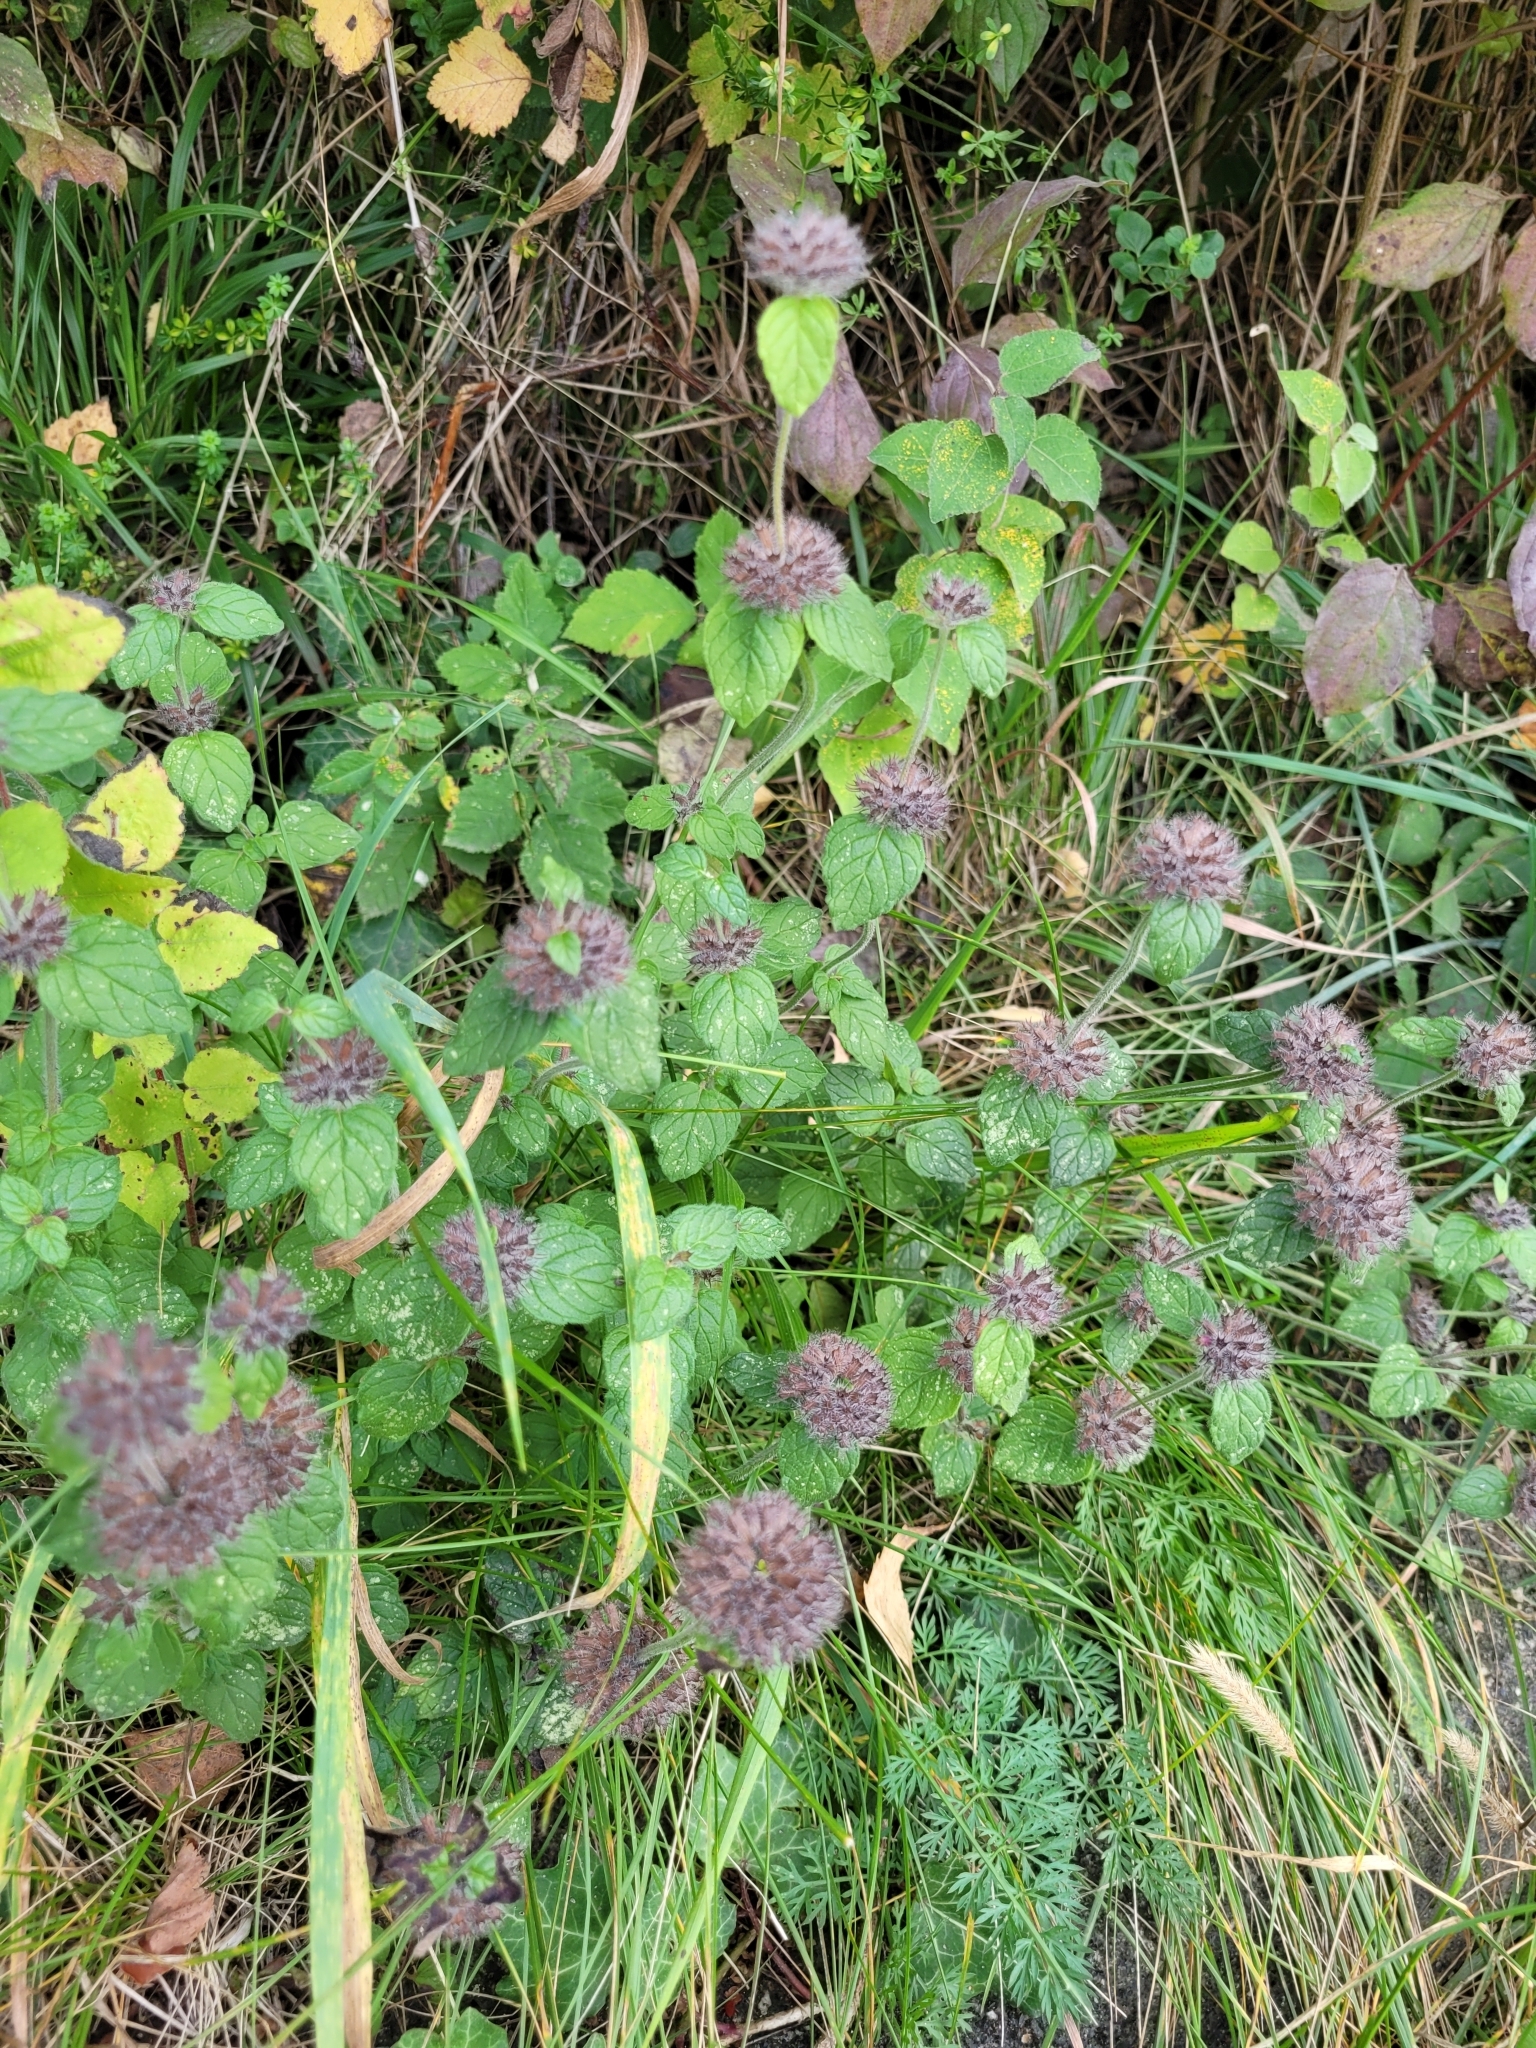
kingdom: Plantae
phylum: Tracheophyta
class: Magnoliopsida
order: Lamiales
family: Lamiaceae
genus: Clinopodium
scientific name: Clinopodium vulgare
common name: Wild basil
